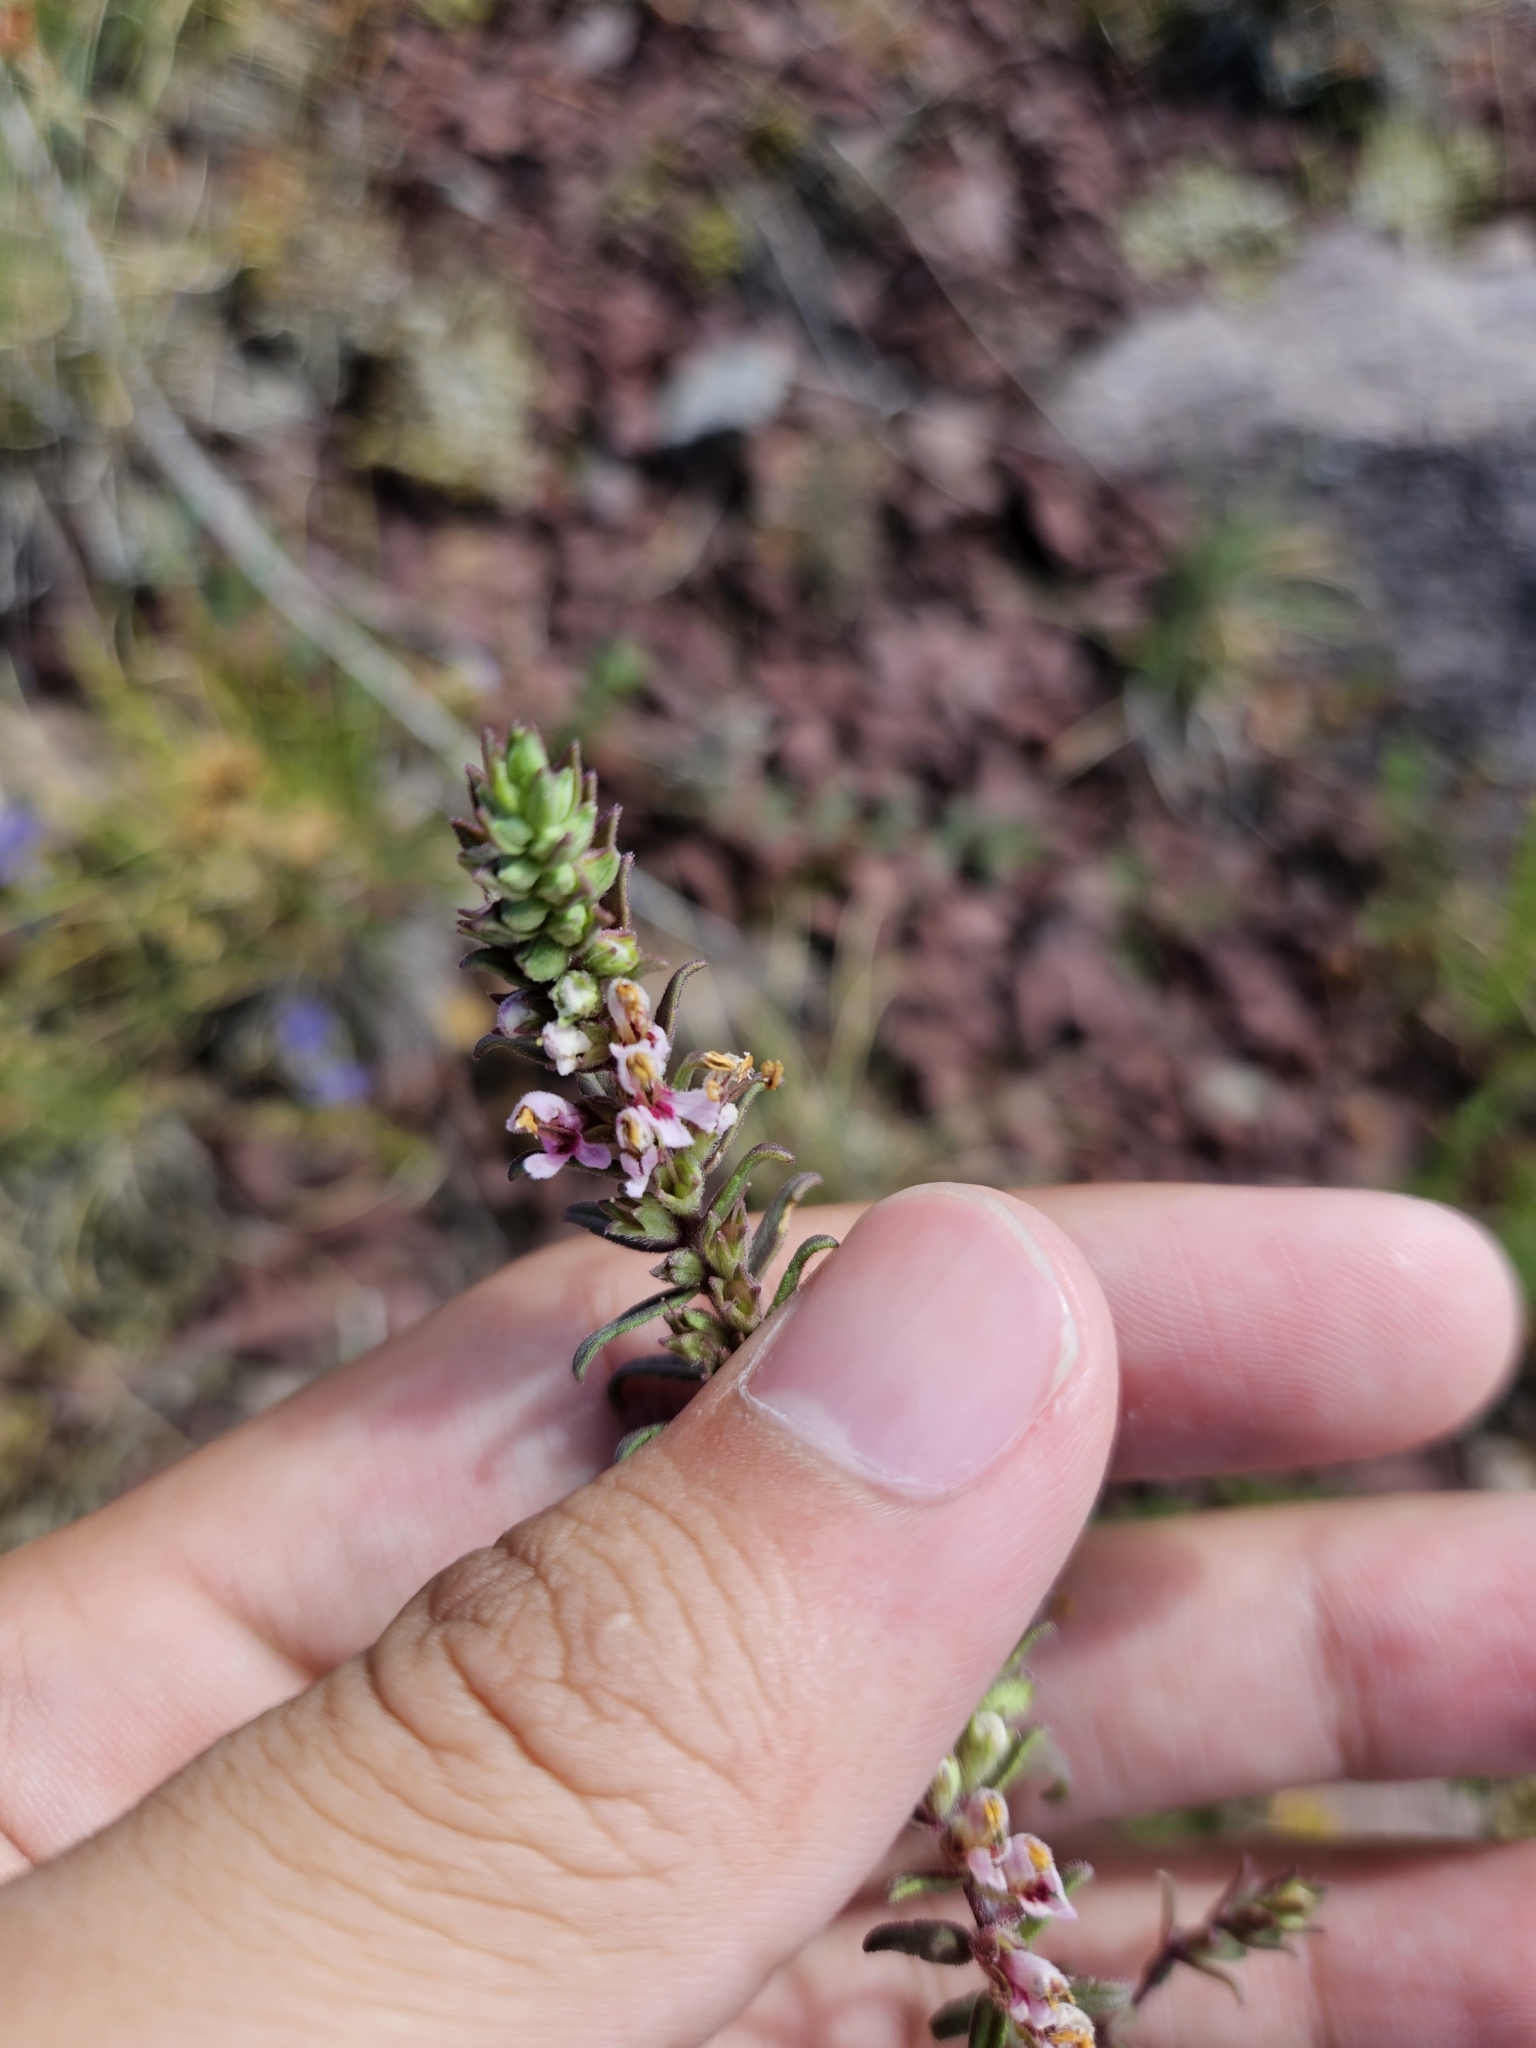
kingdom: Plantae
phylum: Tracheophyta
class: Magnoliopsida
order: Lamiales
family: Orobanchaceae
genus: Odontites
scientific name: Odontites vernus
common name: Red bartsia
